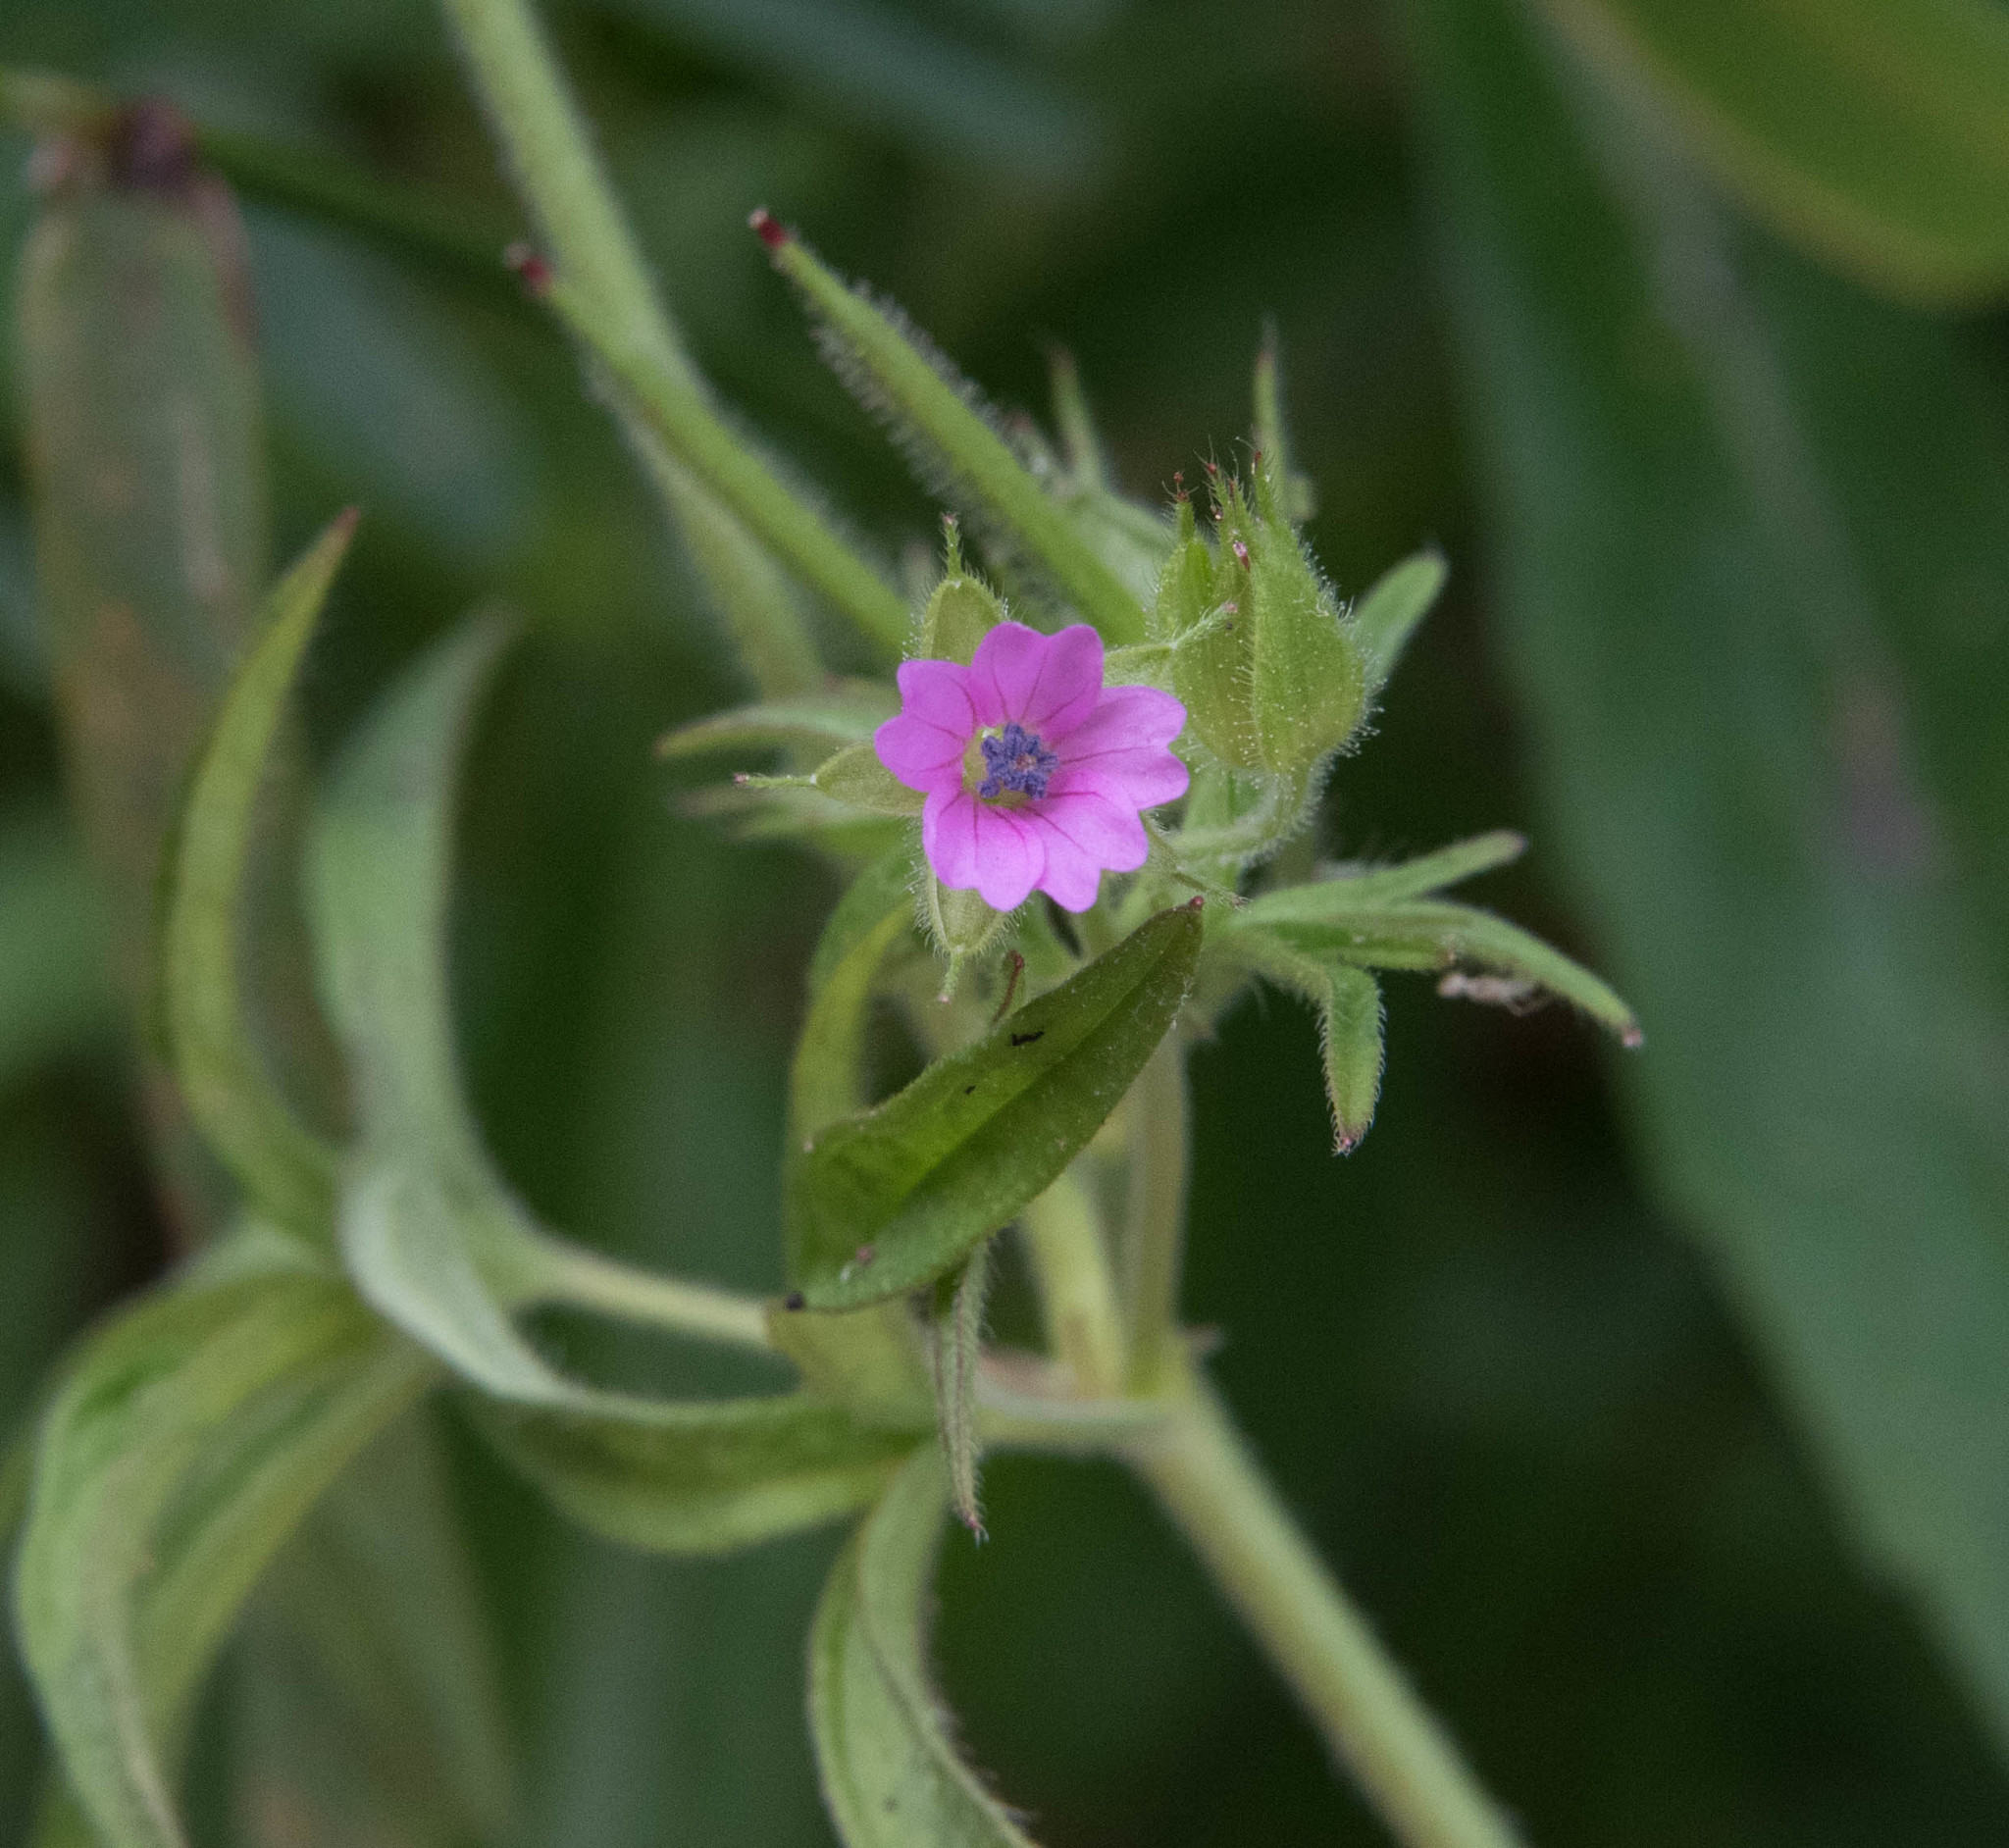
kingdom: Plantae
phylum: Tracheophyta
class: Magnoliopsida
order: Geraniales
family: Geraniaceae
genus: Geranium
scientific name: Geranium dissectum
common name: Cut-leaved crane's-bill
